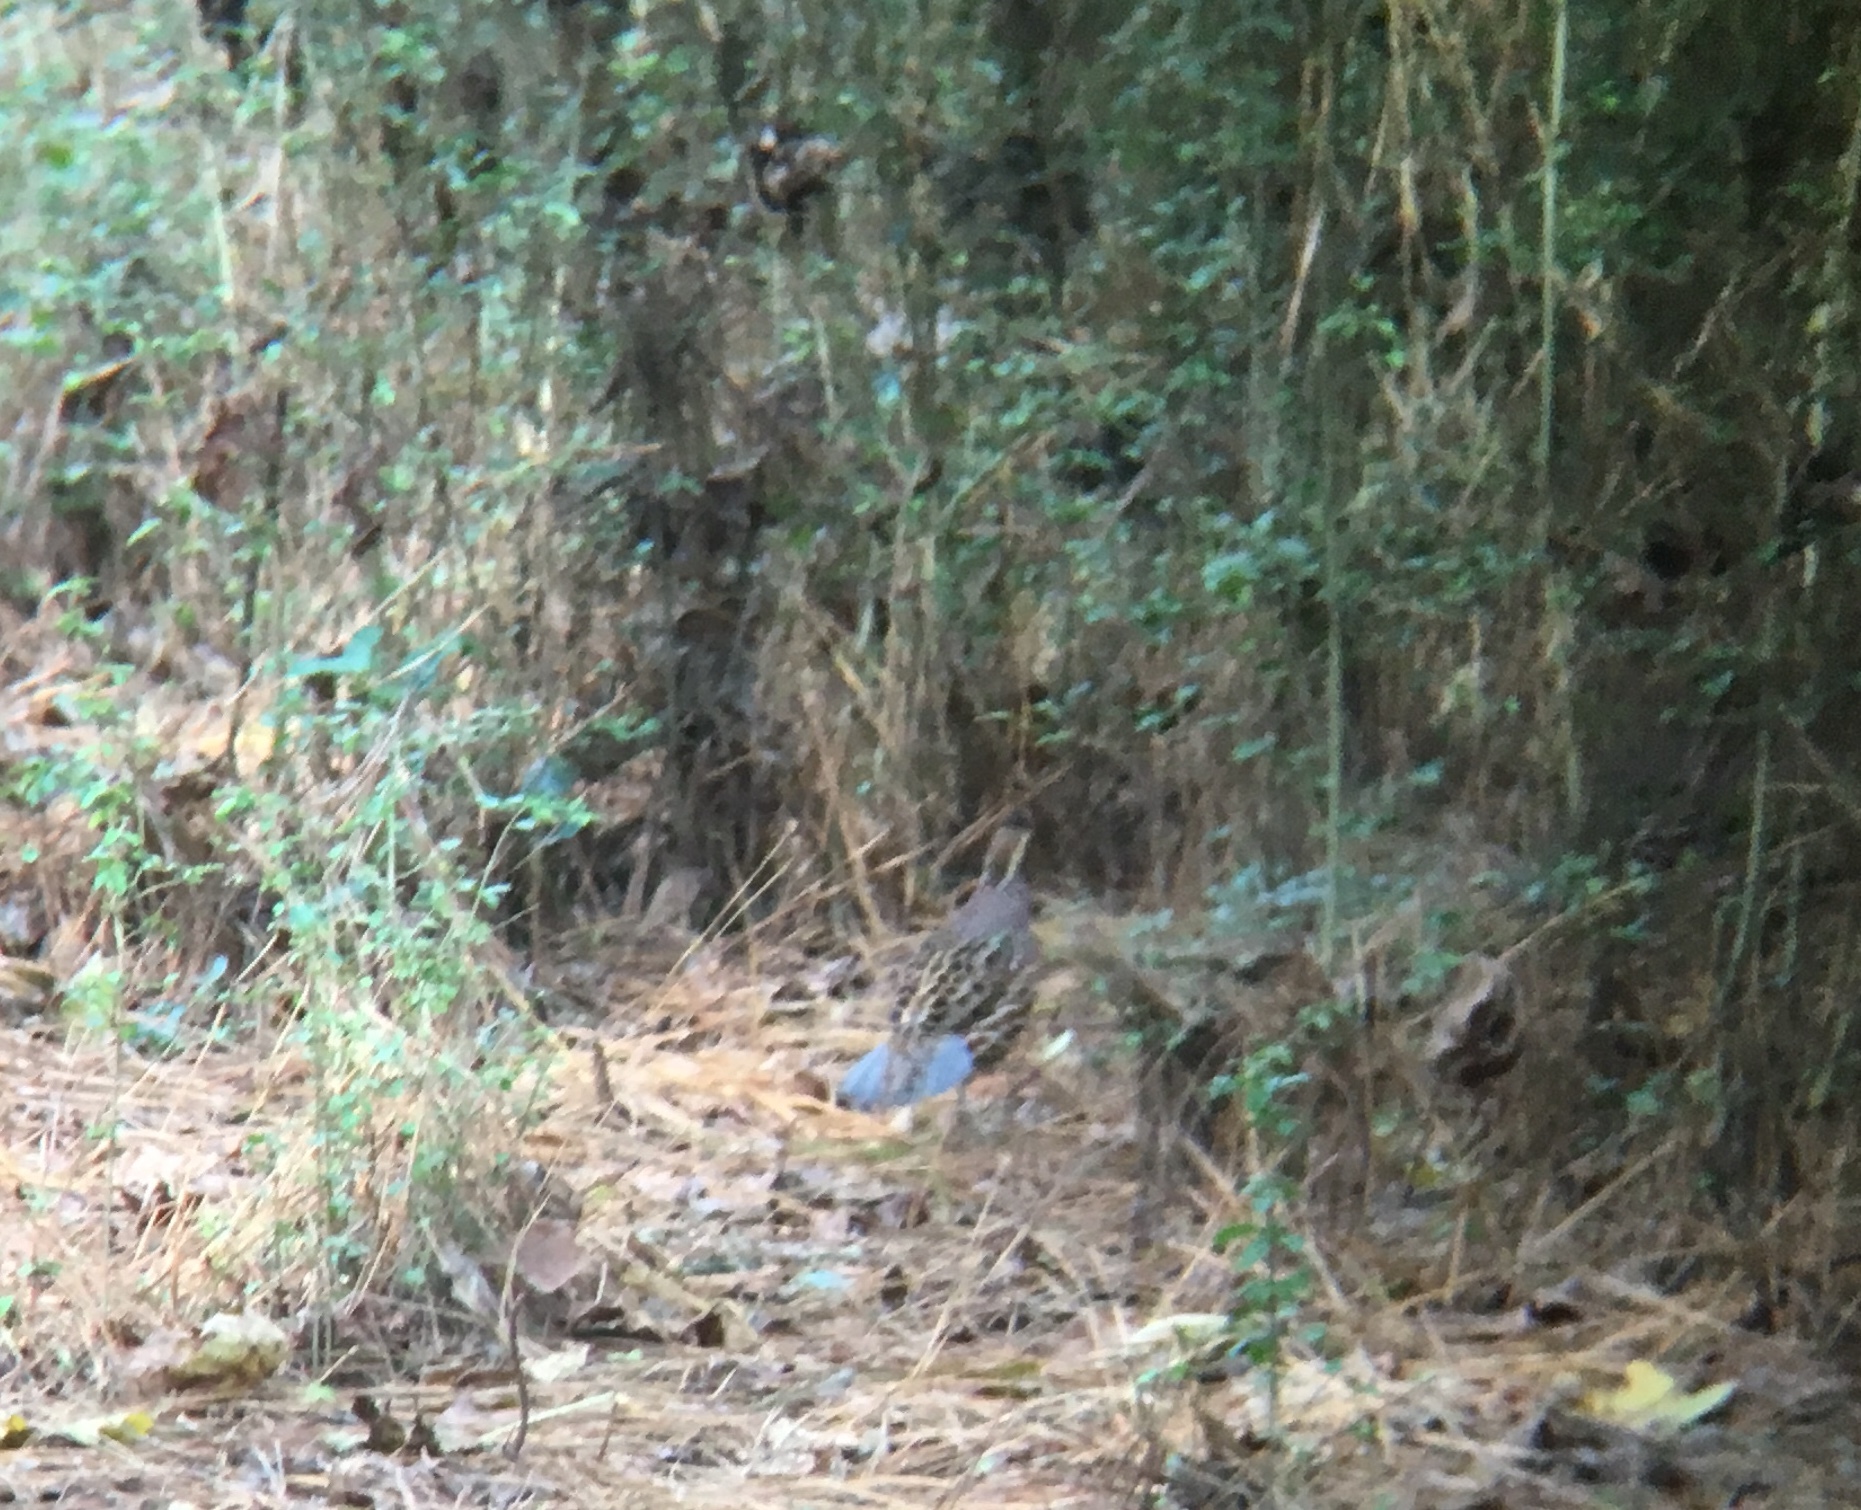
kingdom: Animalia
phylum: Chordata
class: Aves
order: Galliformes
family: Odontophoridae
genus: Colinus
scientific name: Colinus virginianus
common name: Northern bobwhite
